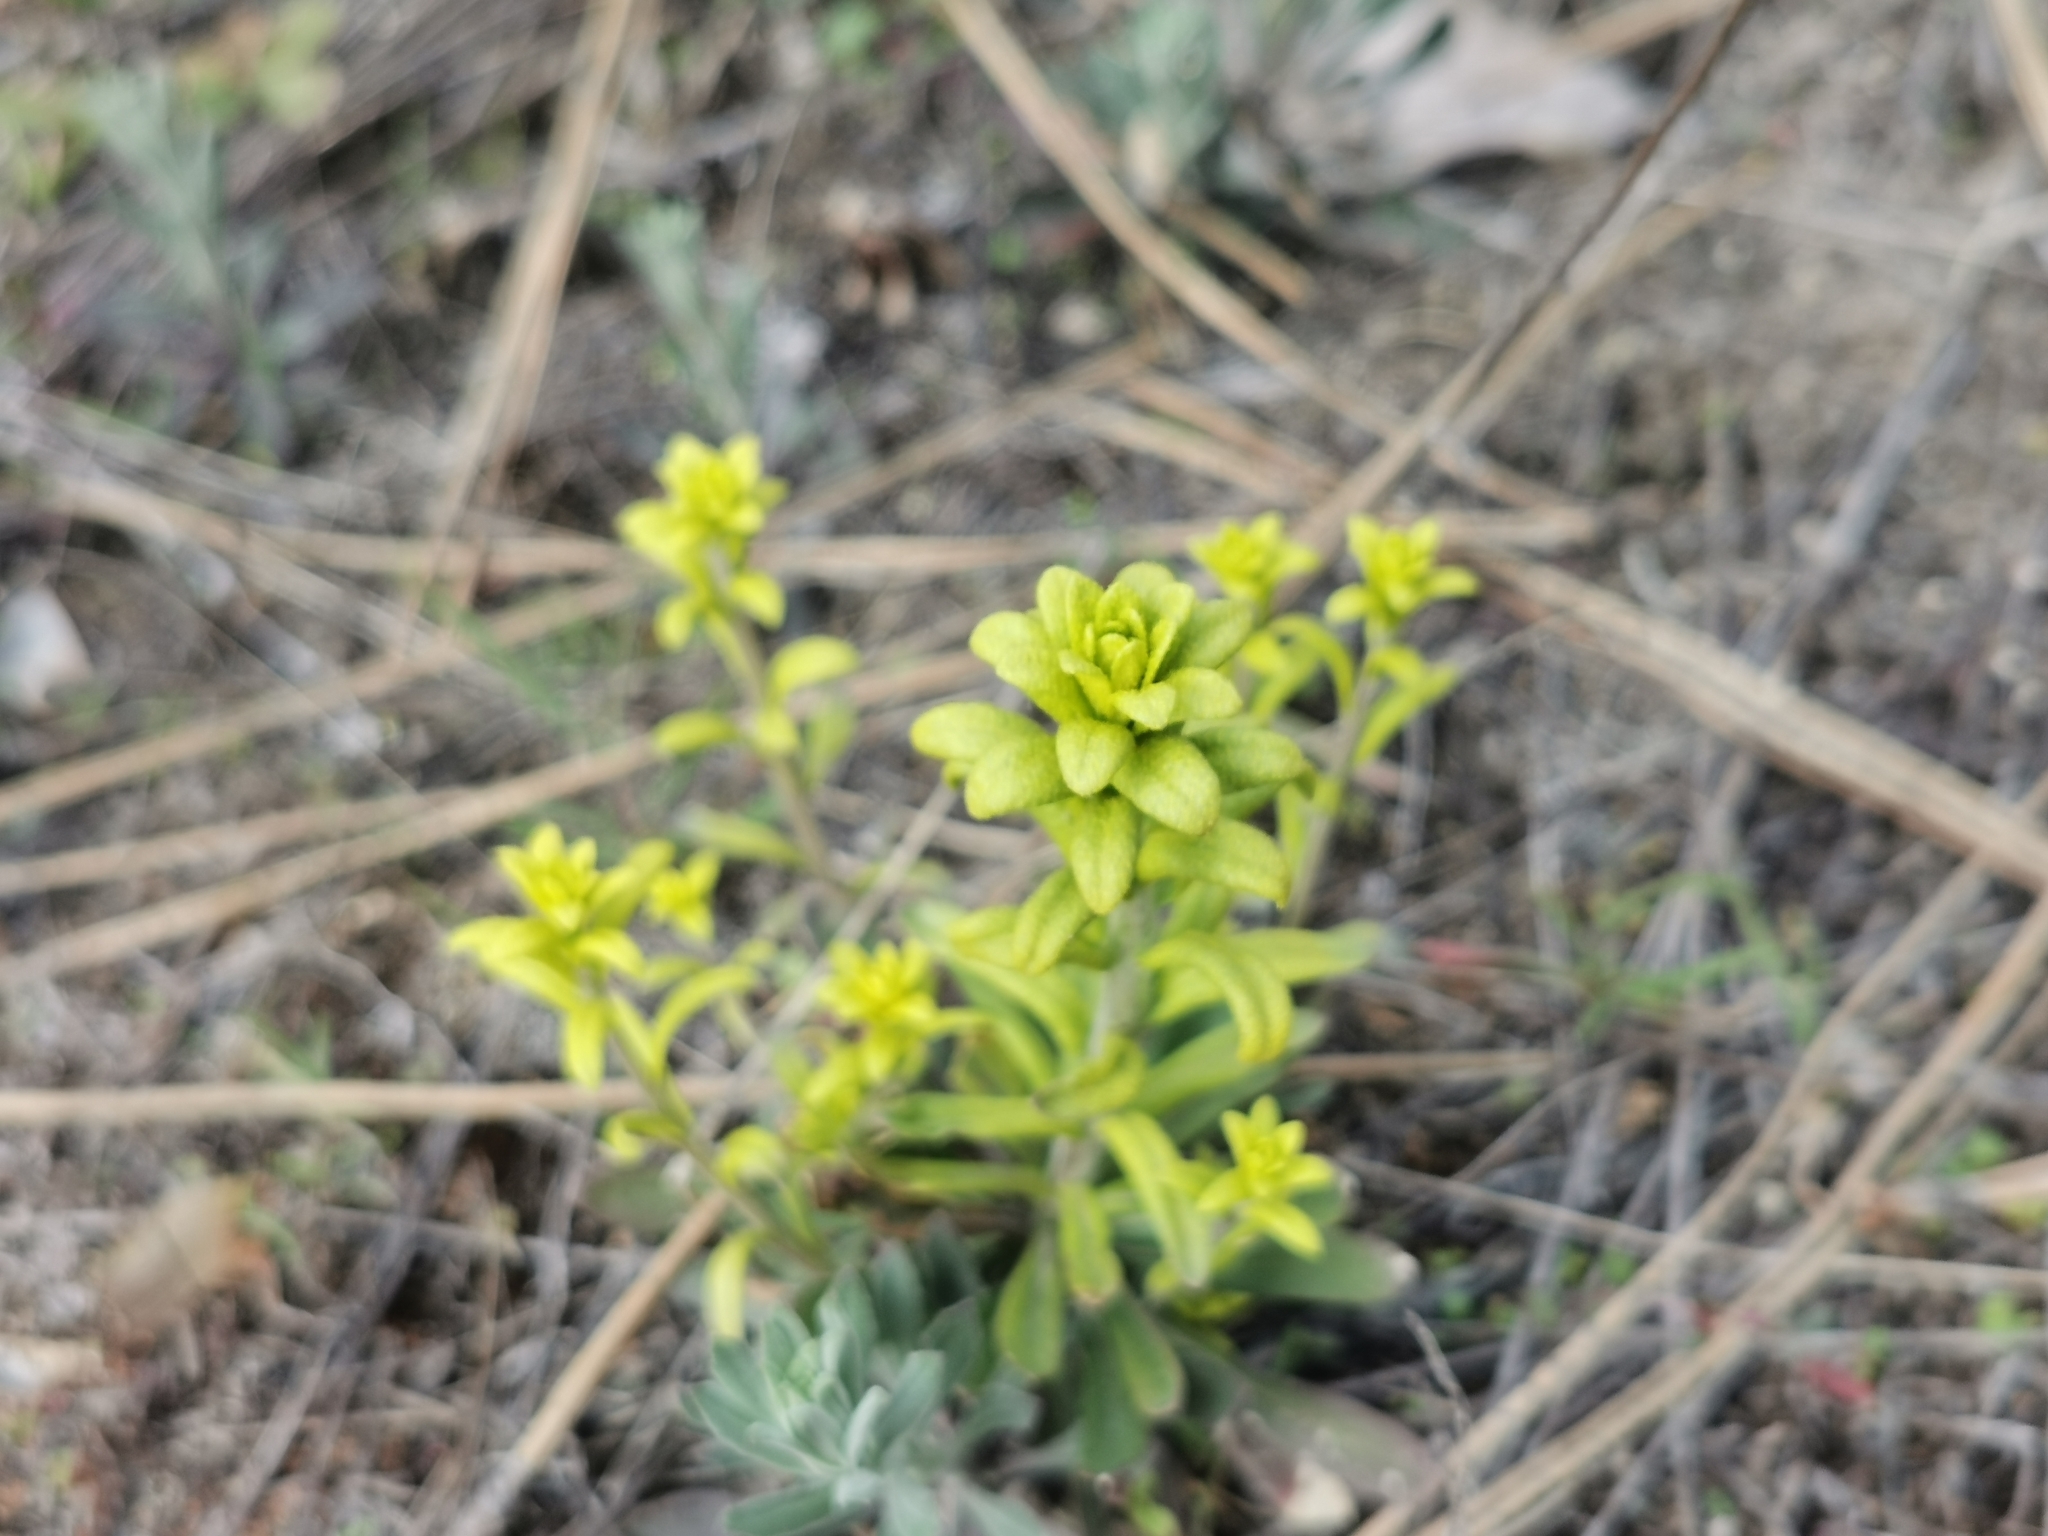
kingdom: Fungi
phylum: Basidiomycota
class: Pucciniomycetes
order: Pucciniales
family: Pucciniaceae
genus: Puccinia
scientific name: Puccinia monoica
